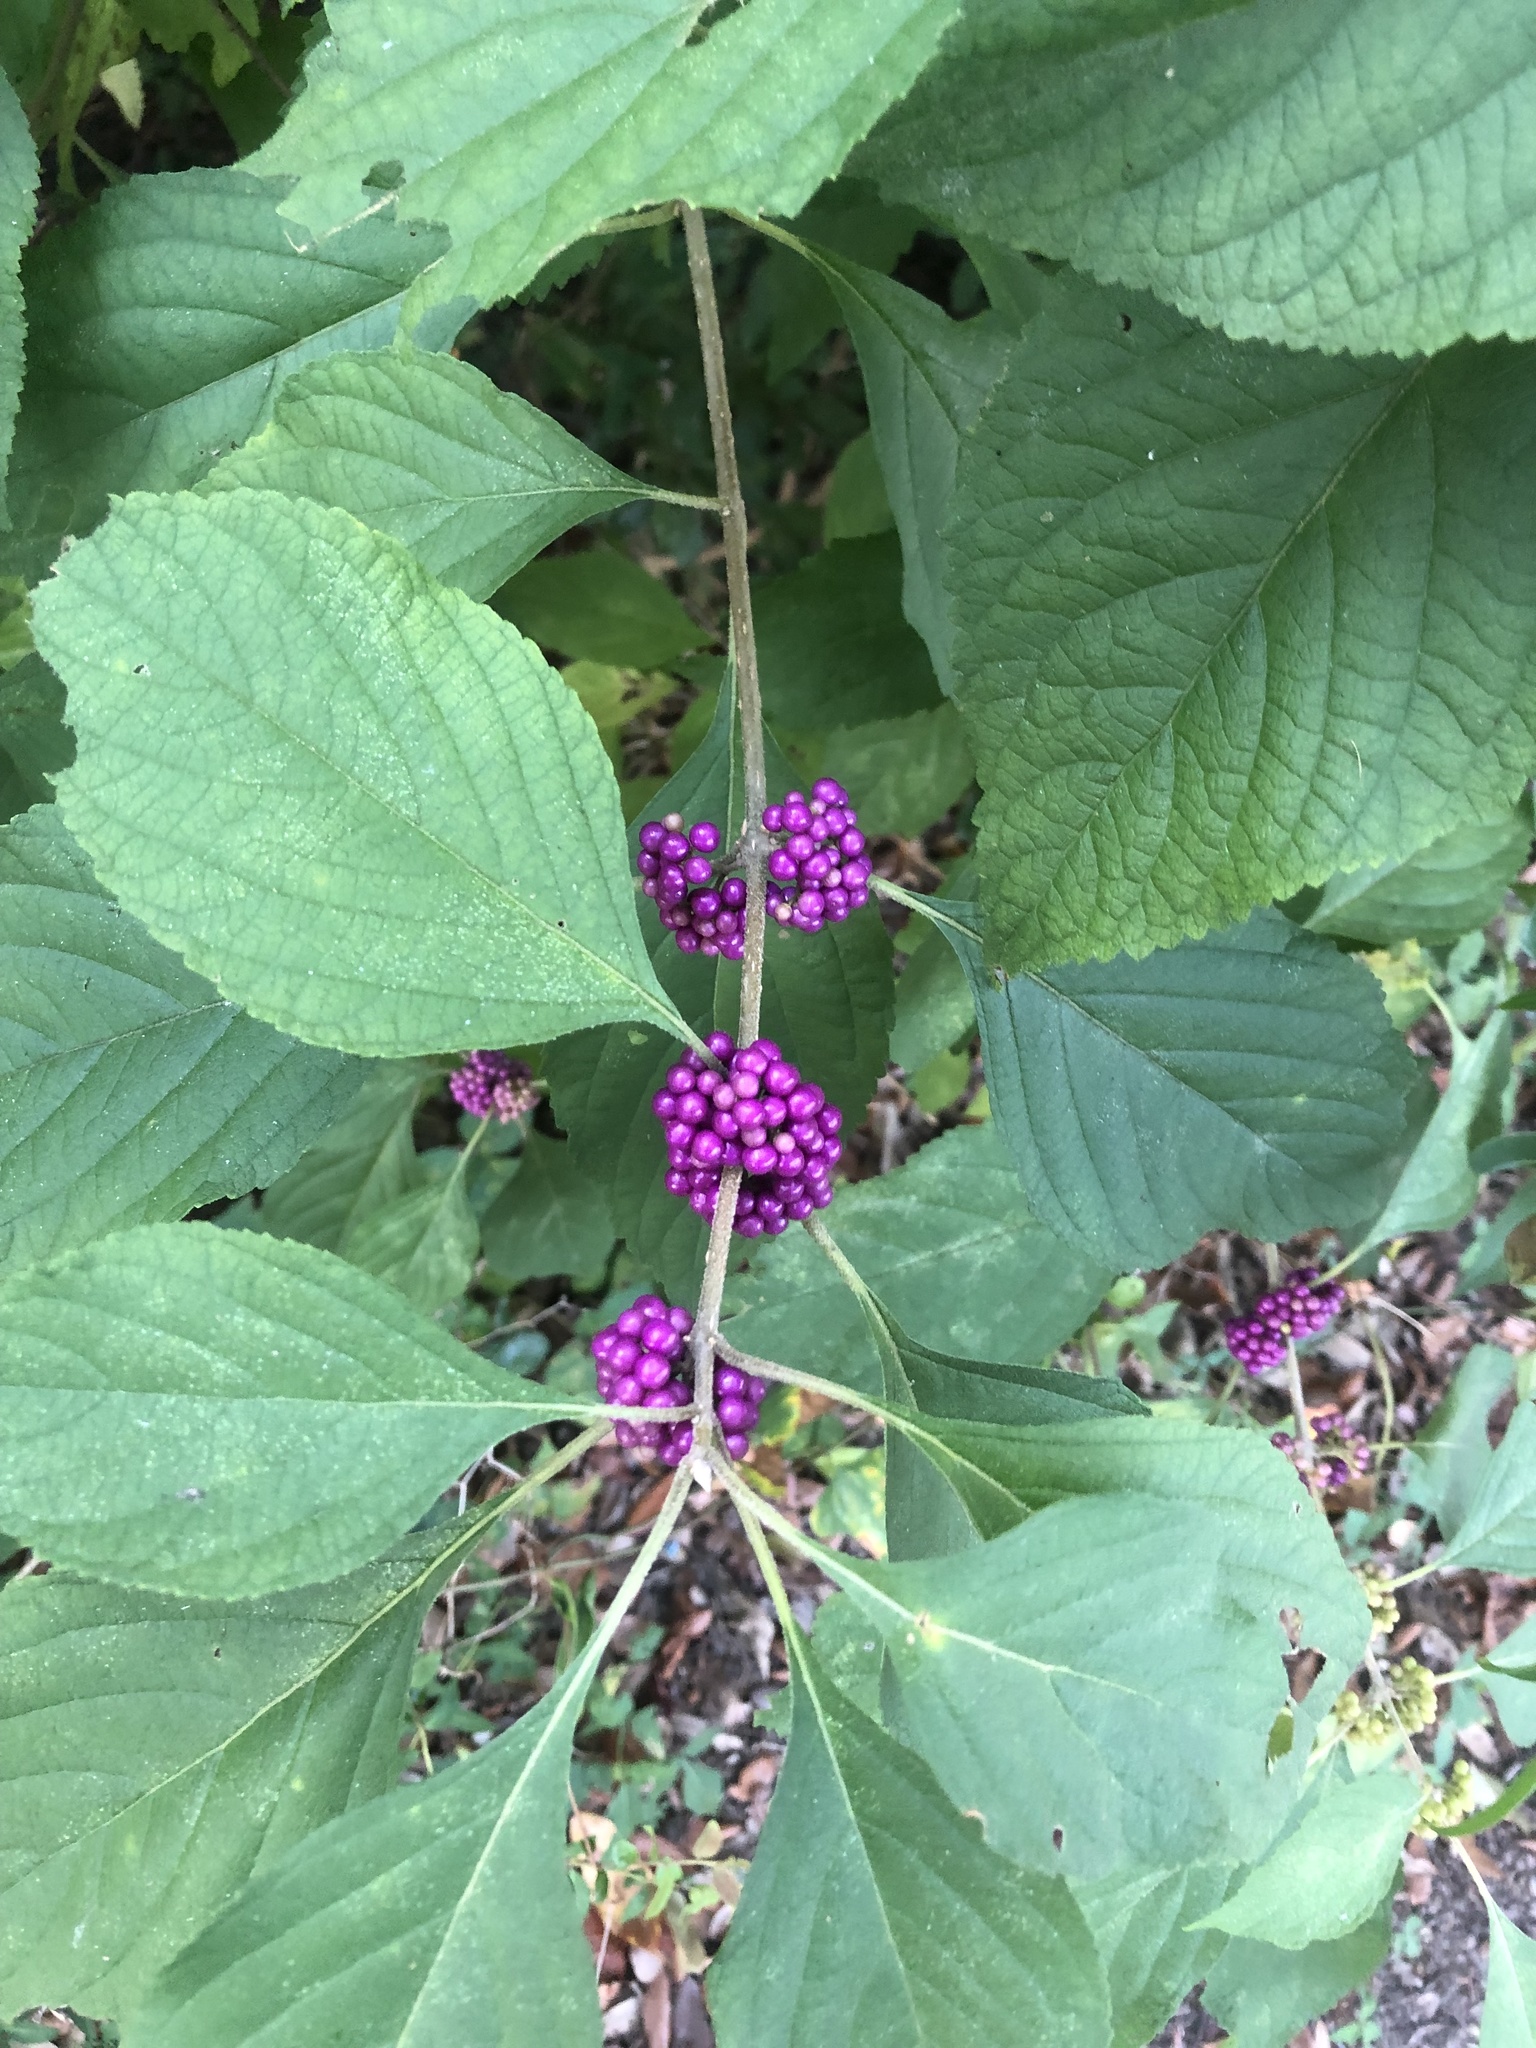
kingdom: Plantae
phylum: Tracheophyta
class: Magnoliopsida
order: Lamiales
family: Lamiaceae
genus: Callicarpa
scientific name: Callicarpa americana
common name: American beautyberry
